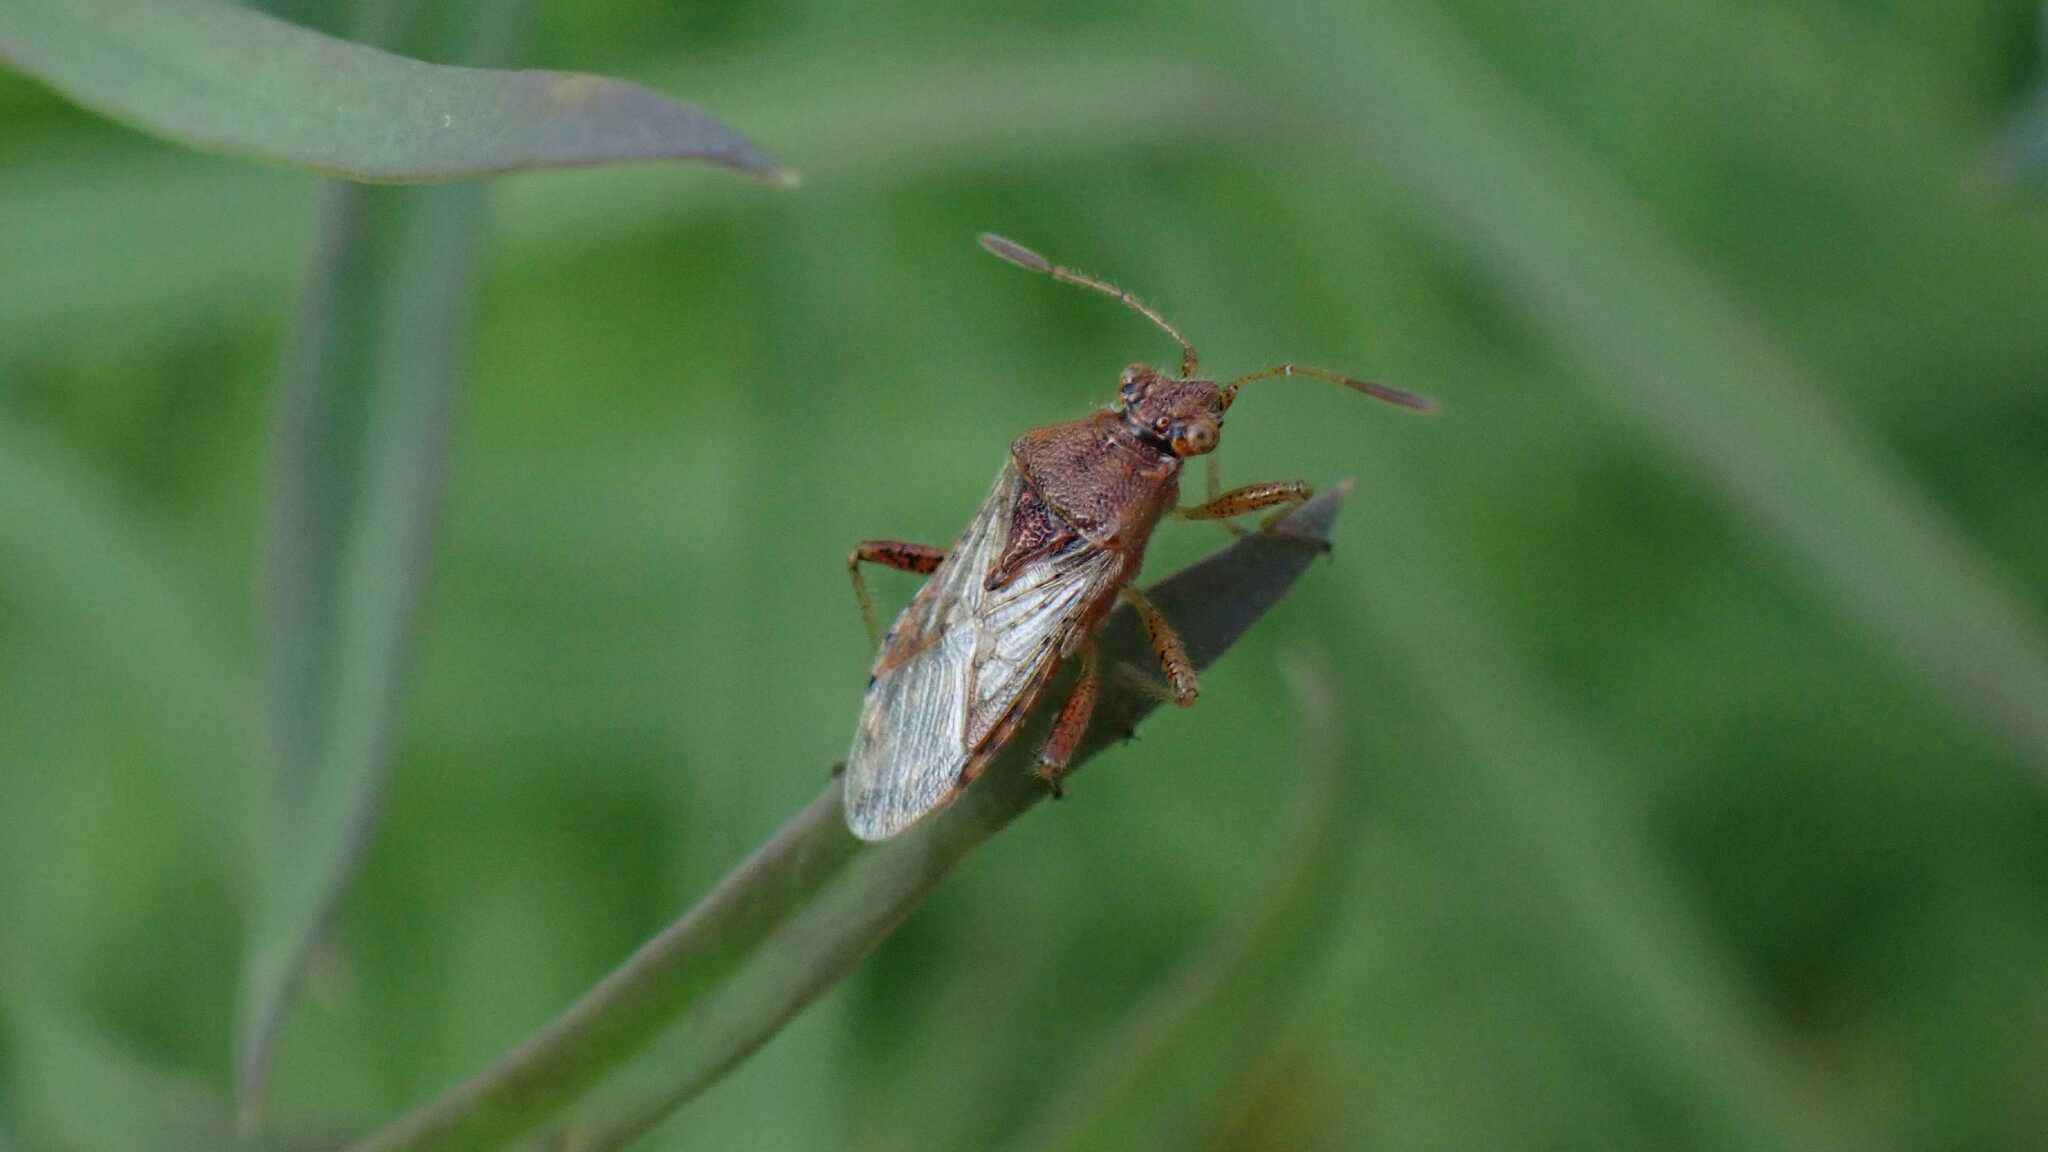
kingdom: Animalia
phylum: Arthropoda
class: Insecta
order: Hemiptera
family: Rhopalidae
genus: Rhopalus
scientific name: Rhopalus parumpunctatus
